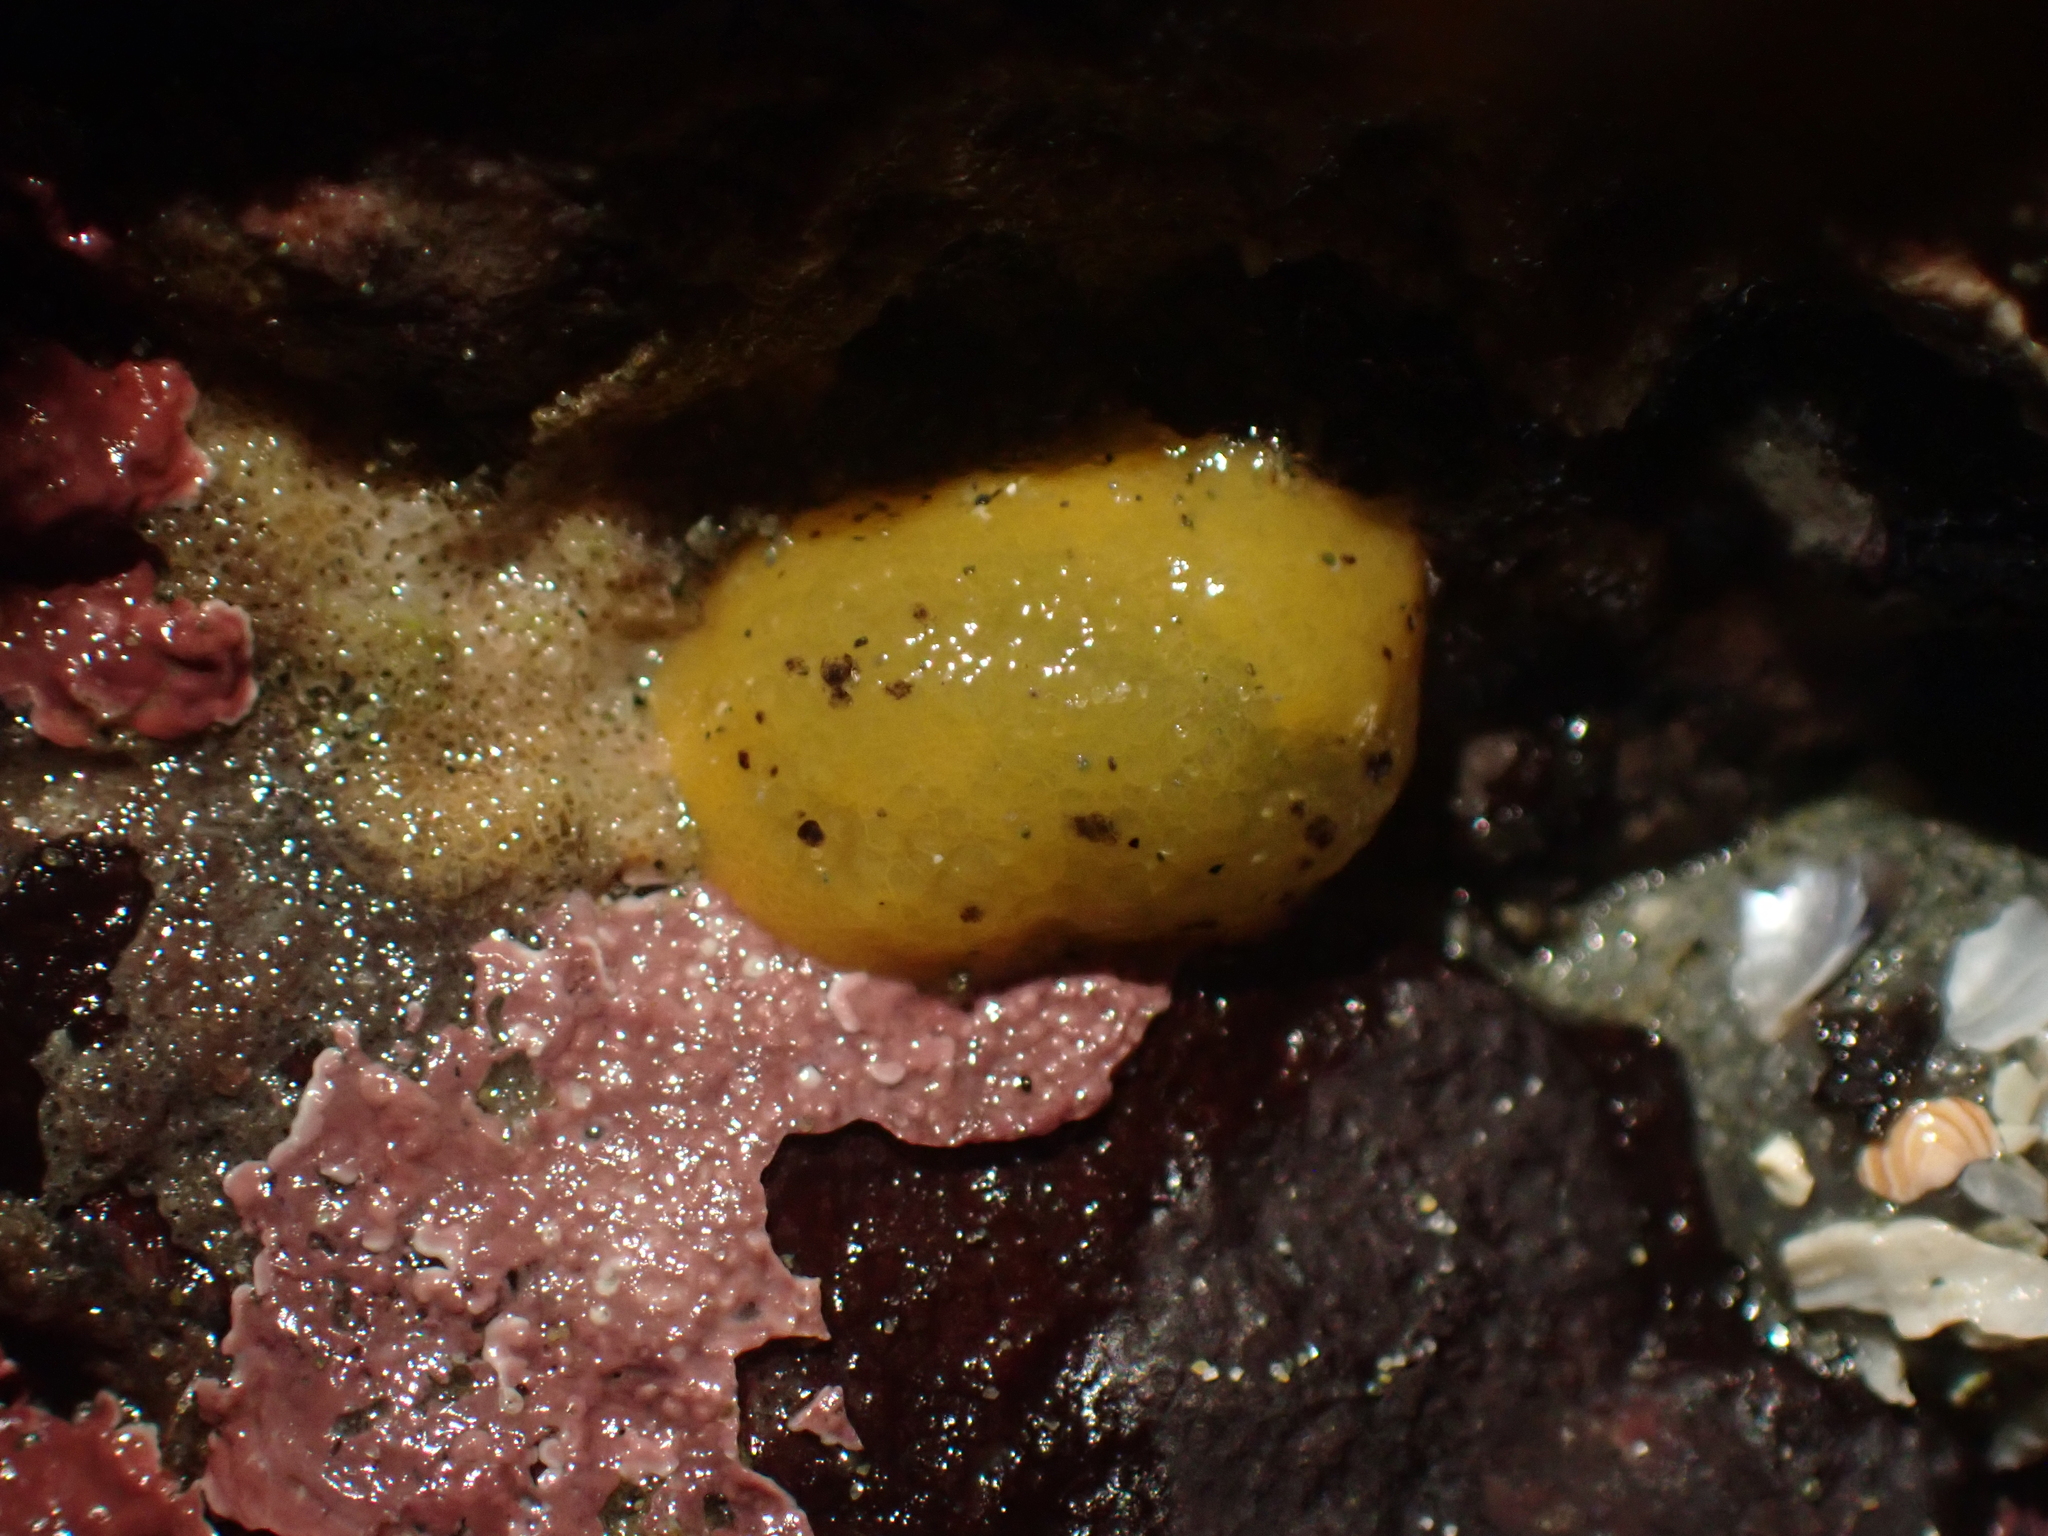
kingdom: Animalia
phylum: Mollusca
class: Gastropoda
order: Nudibranchia
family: Dorididae
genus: Doris
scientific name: Doris montereyensis
